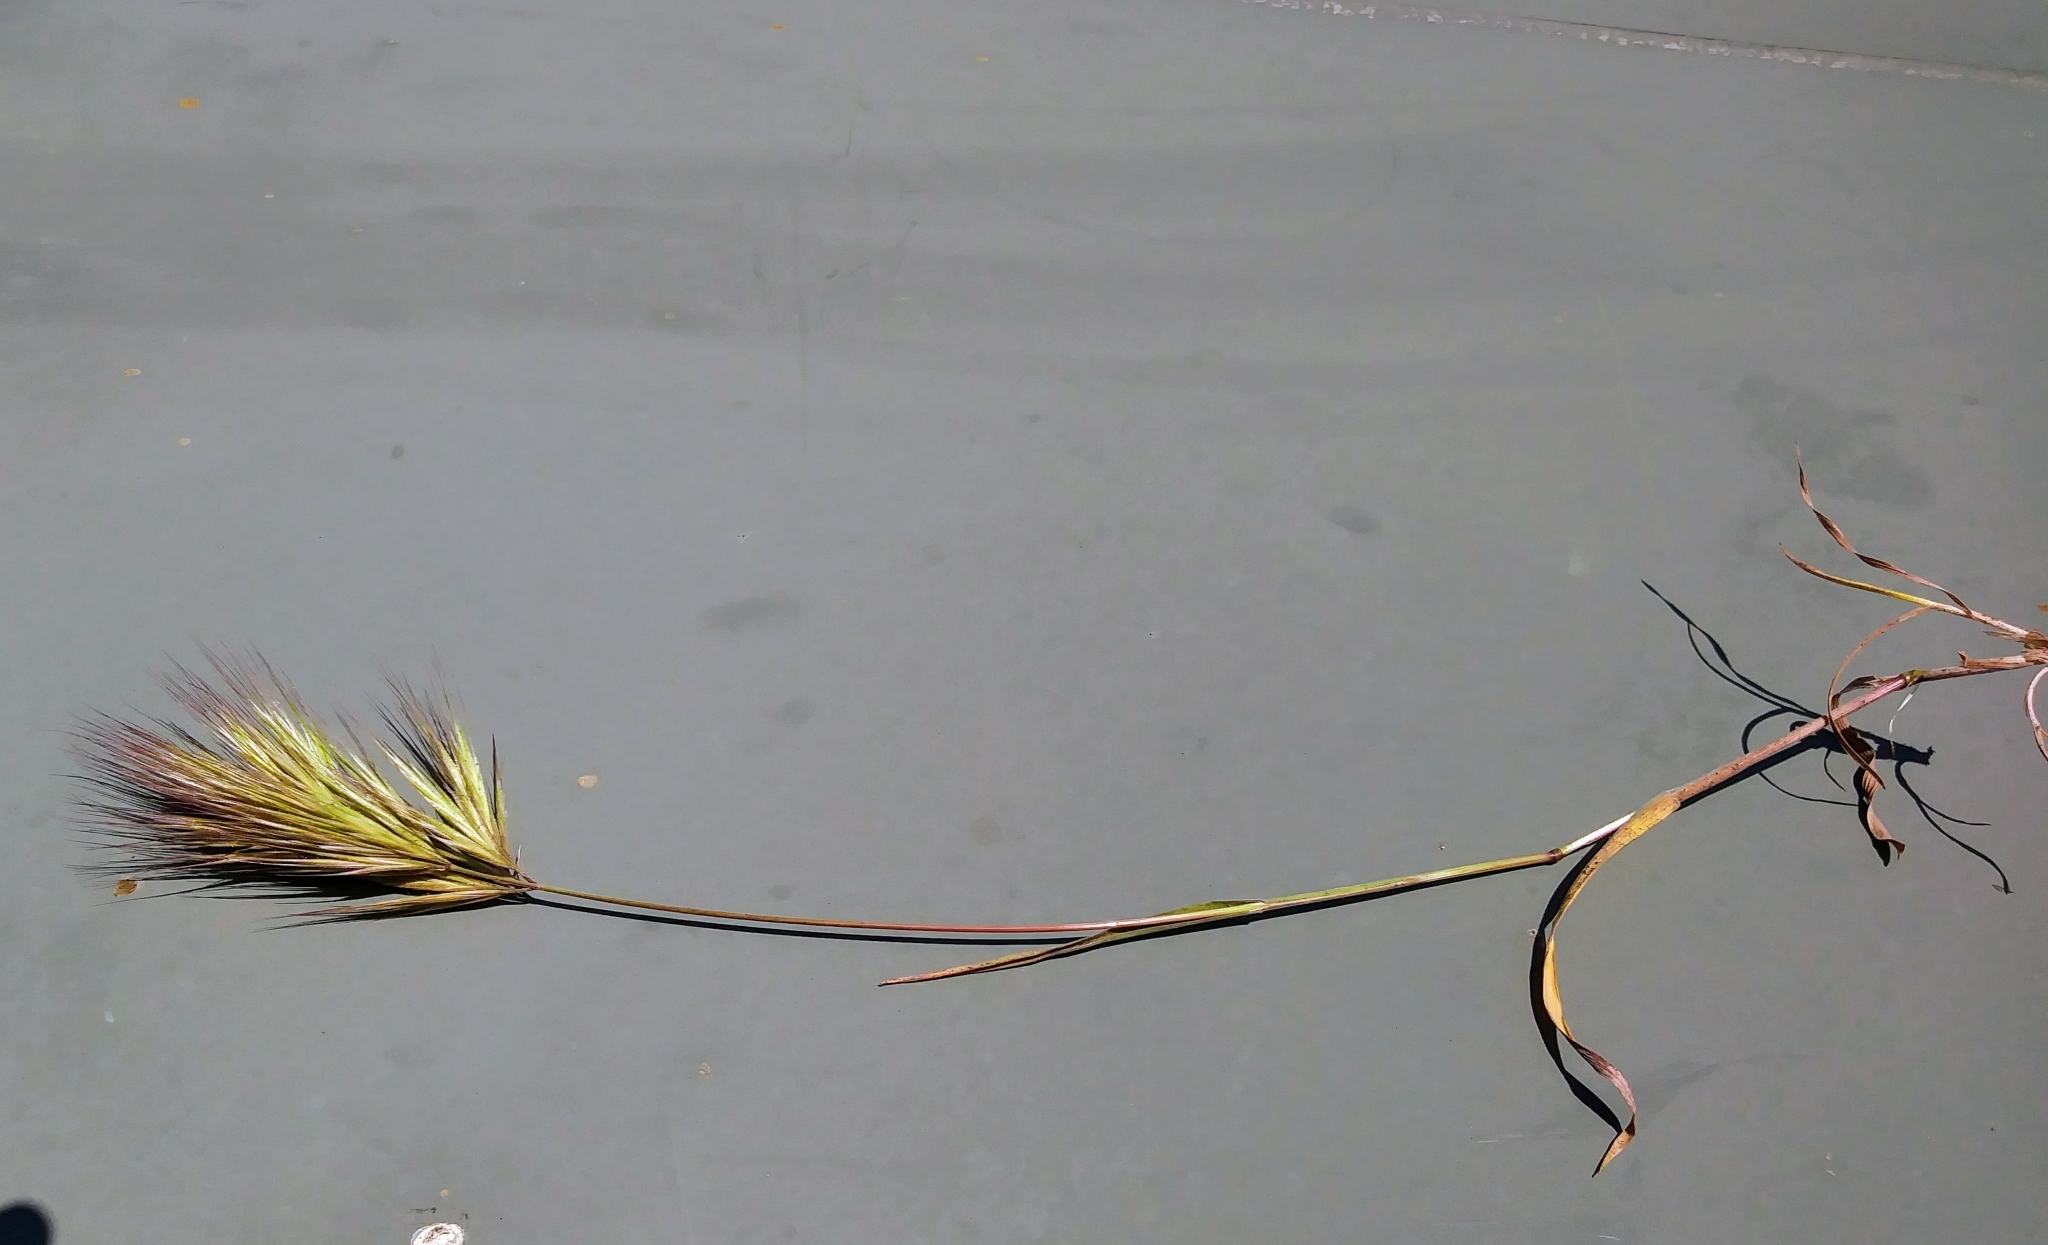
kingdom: Plantae
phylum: Tracheophyta
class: Liliopsida
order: Poales
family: Poaceae
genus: Bromus
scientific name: Bromus rubens
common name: Red brome
